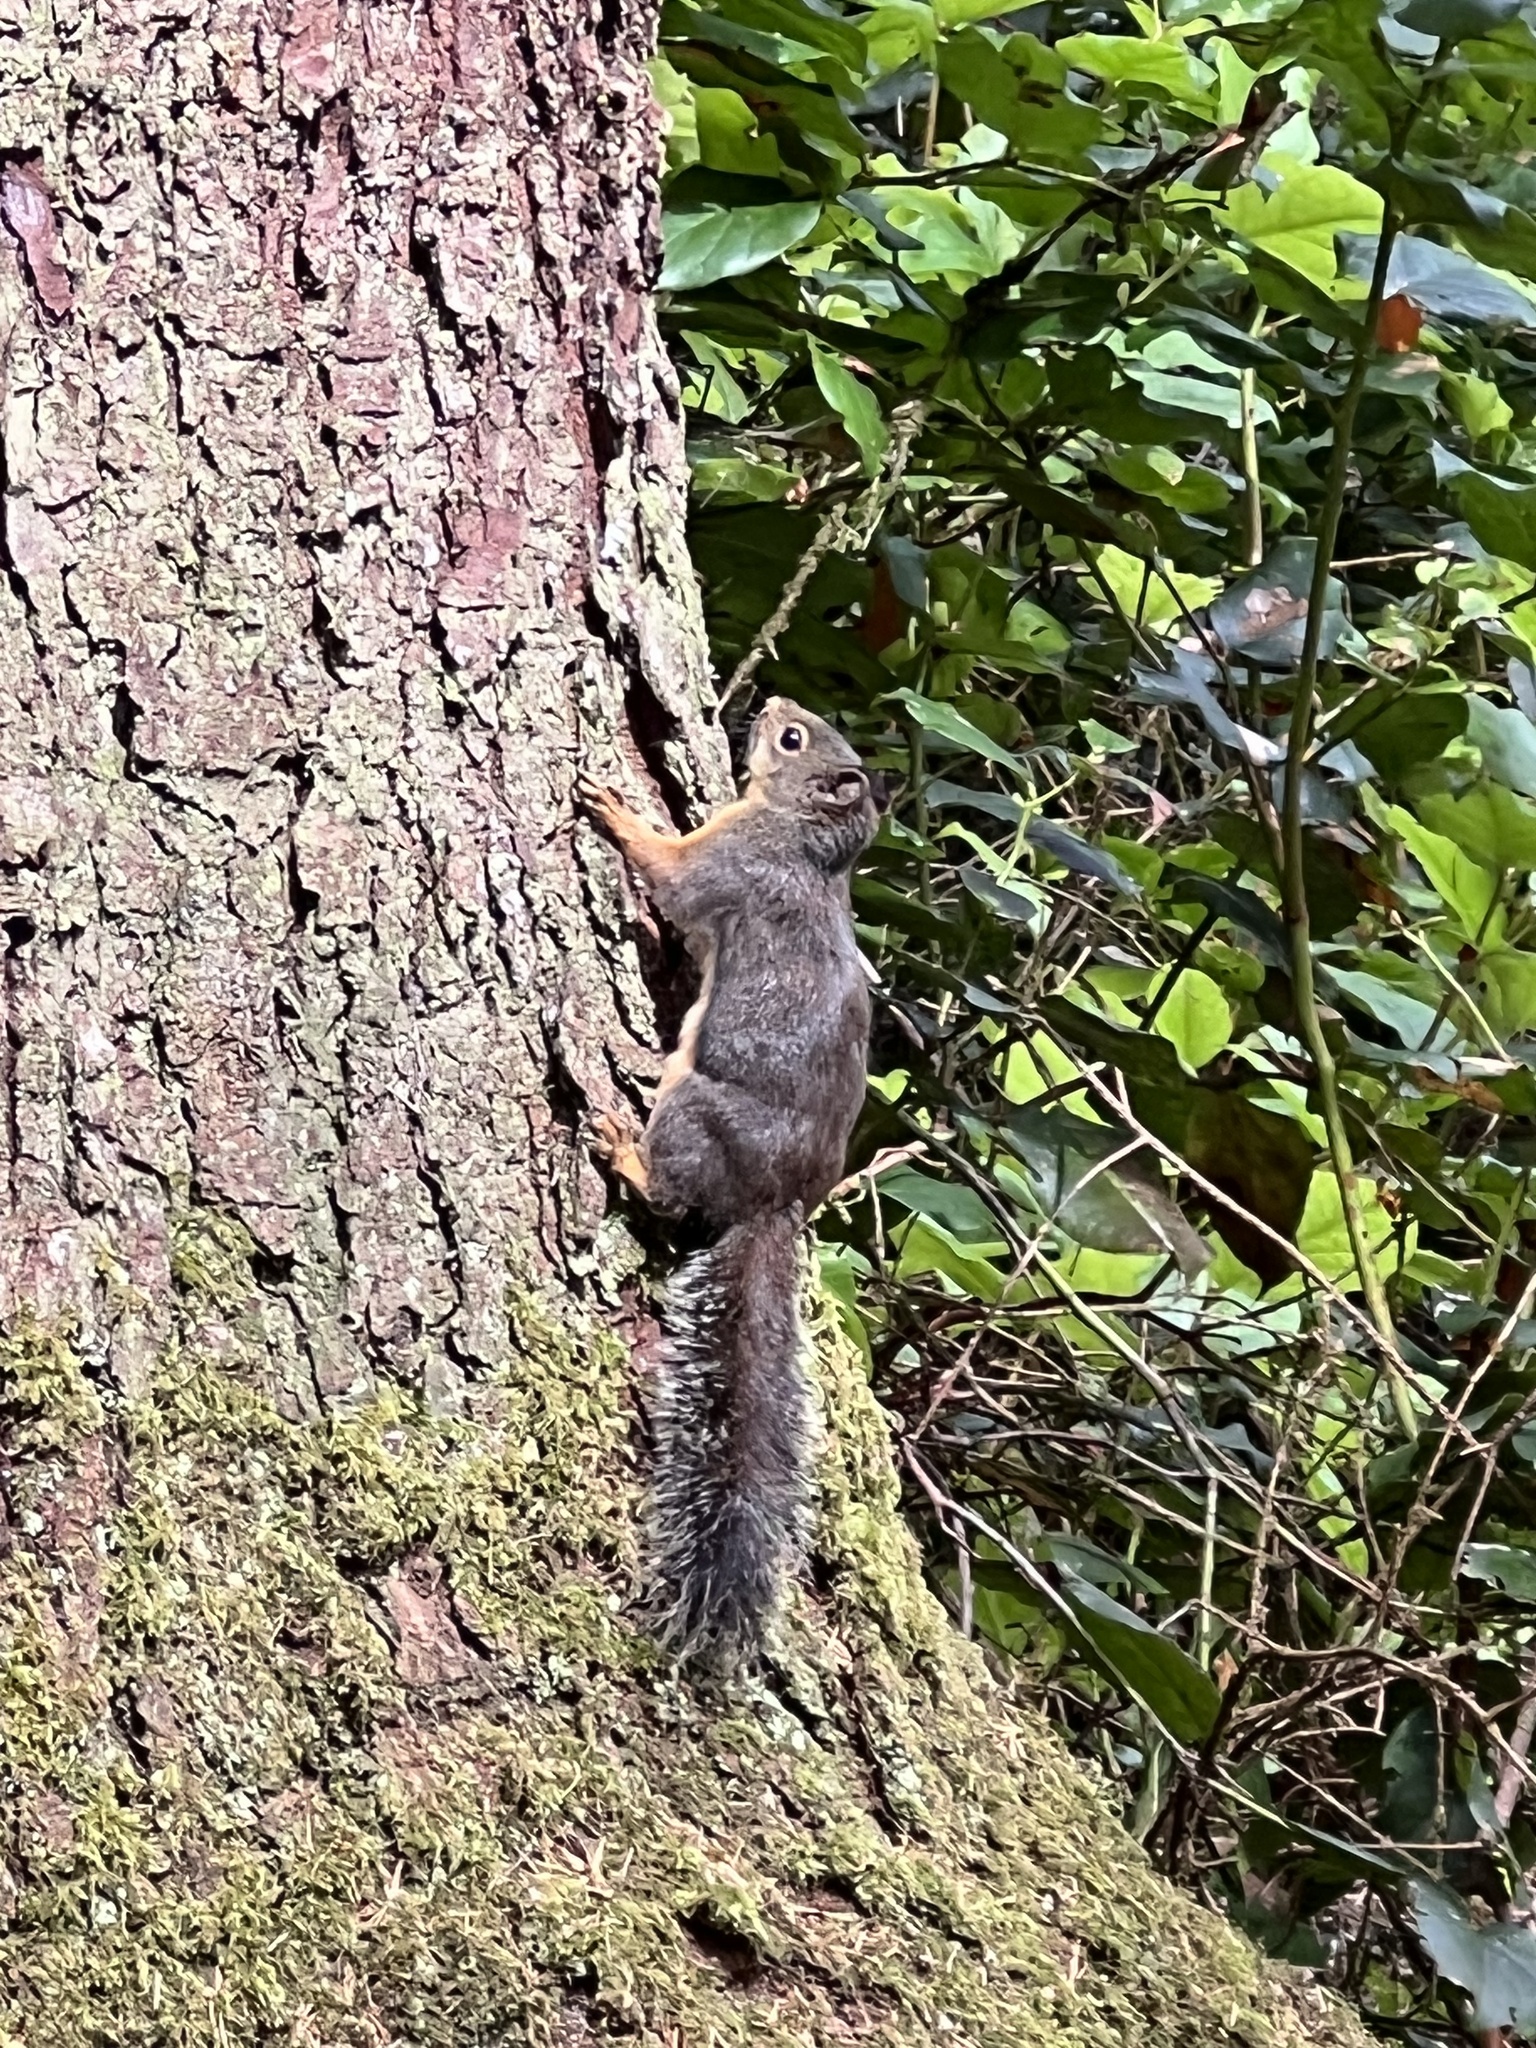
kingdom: Animalia
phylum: Chordata
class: Mammalia
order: Rodentia
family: Sciuridae
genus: Tamiasciurus
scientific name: Tamiasciurus douglasii
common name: Douglas's squirrel
